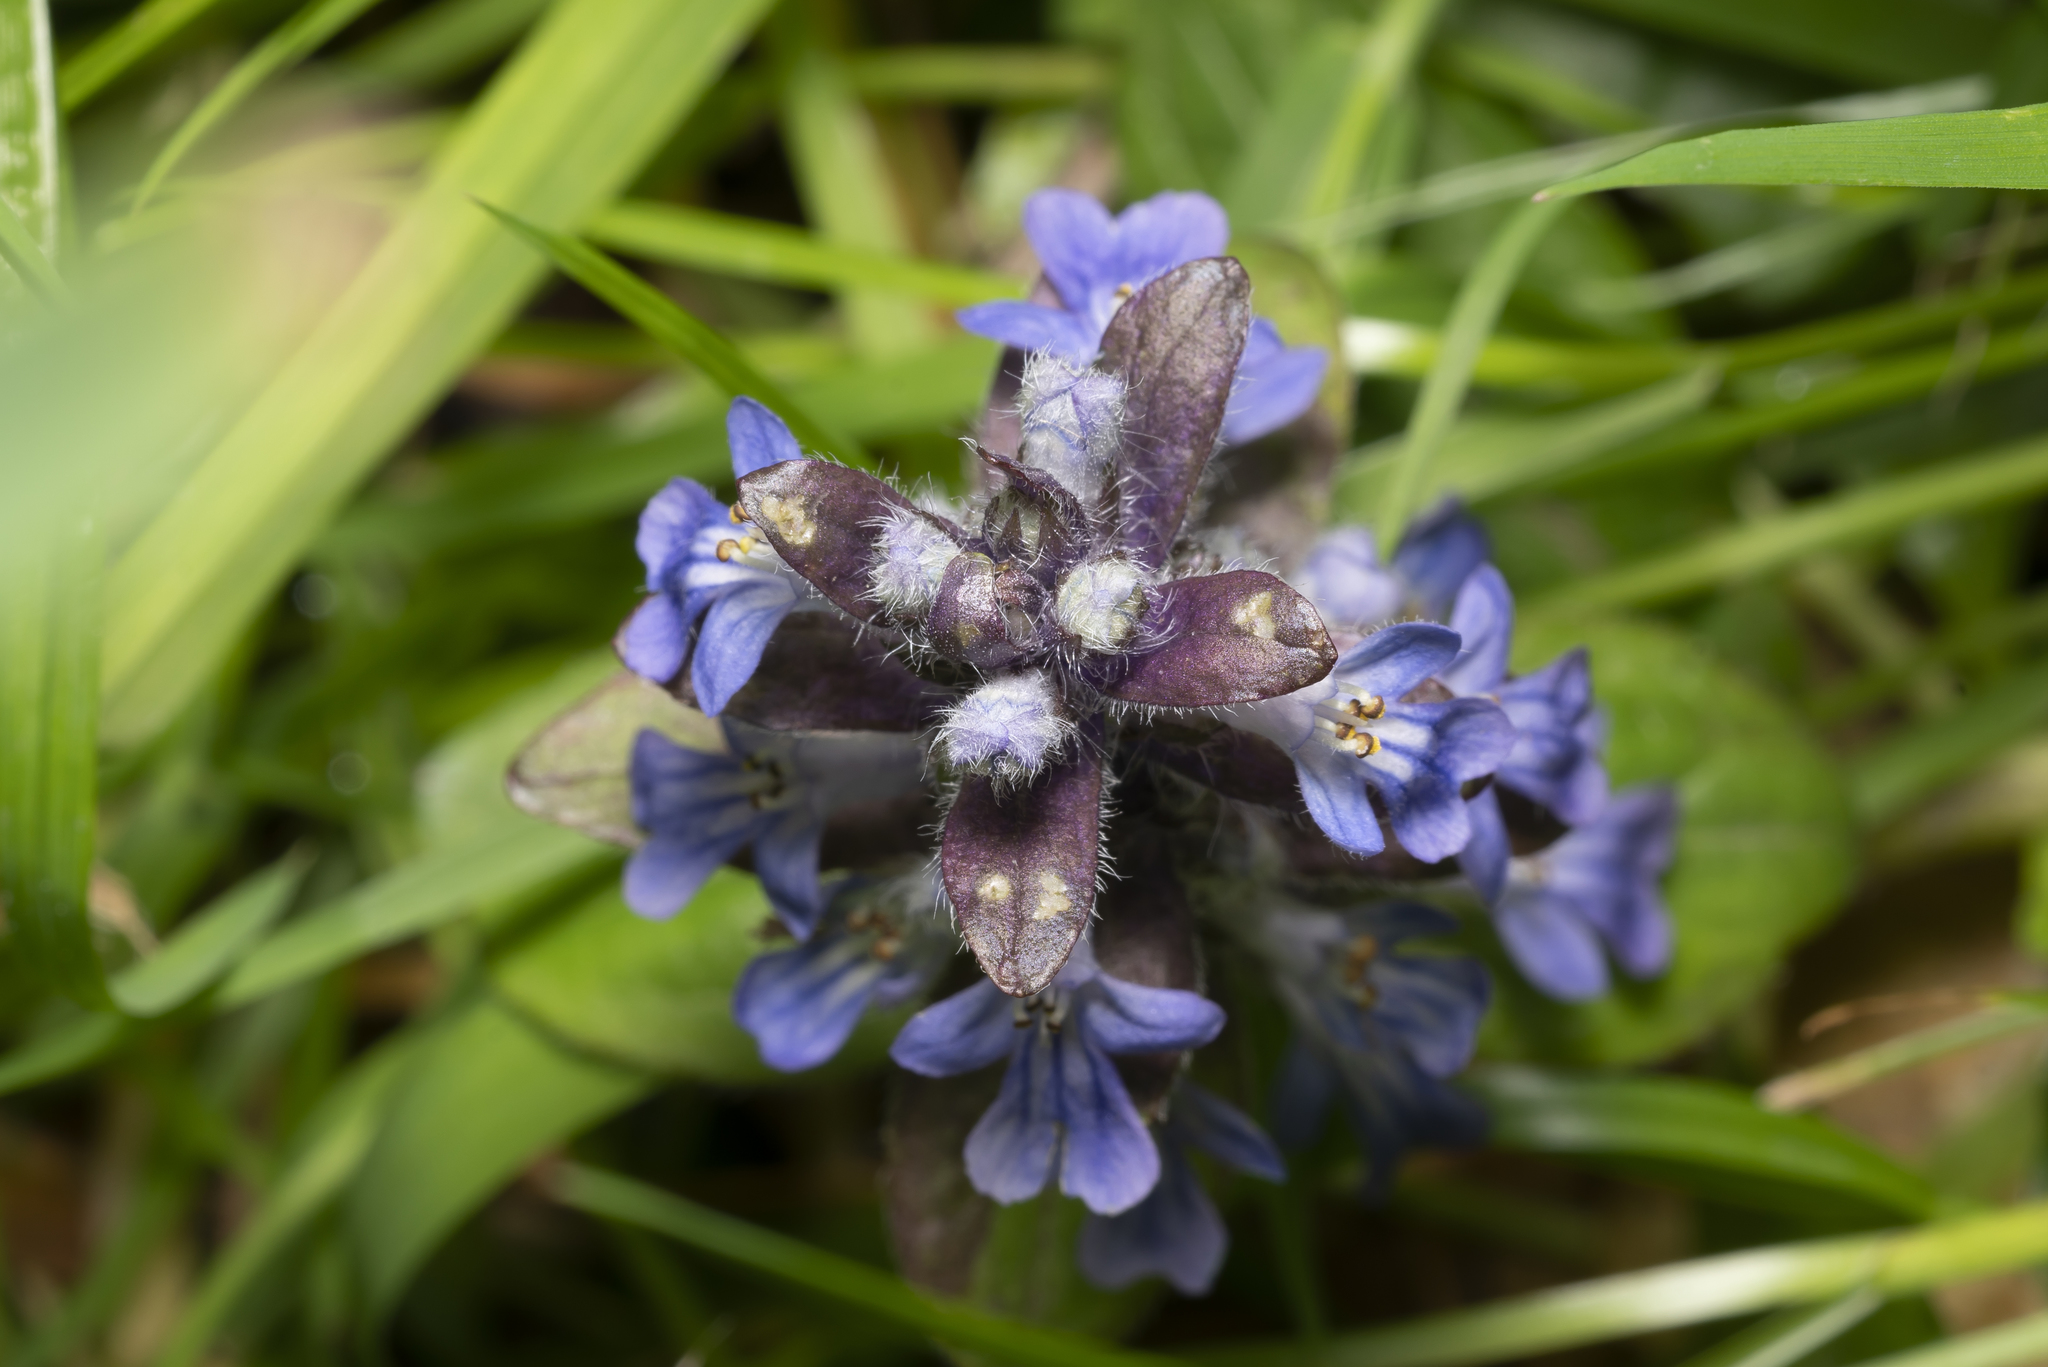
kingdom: Plantae
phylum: Tracheophyta
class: Magnoliopsida
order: Lamiales
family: Lamiaceae
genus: Ajuga
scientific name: Ajuga reptans
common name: Bugle
